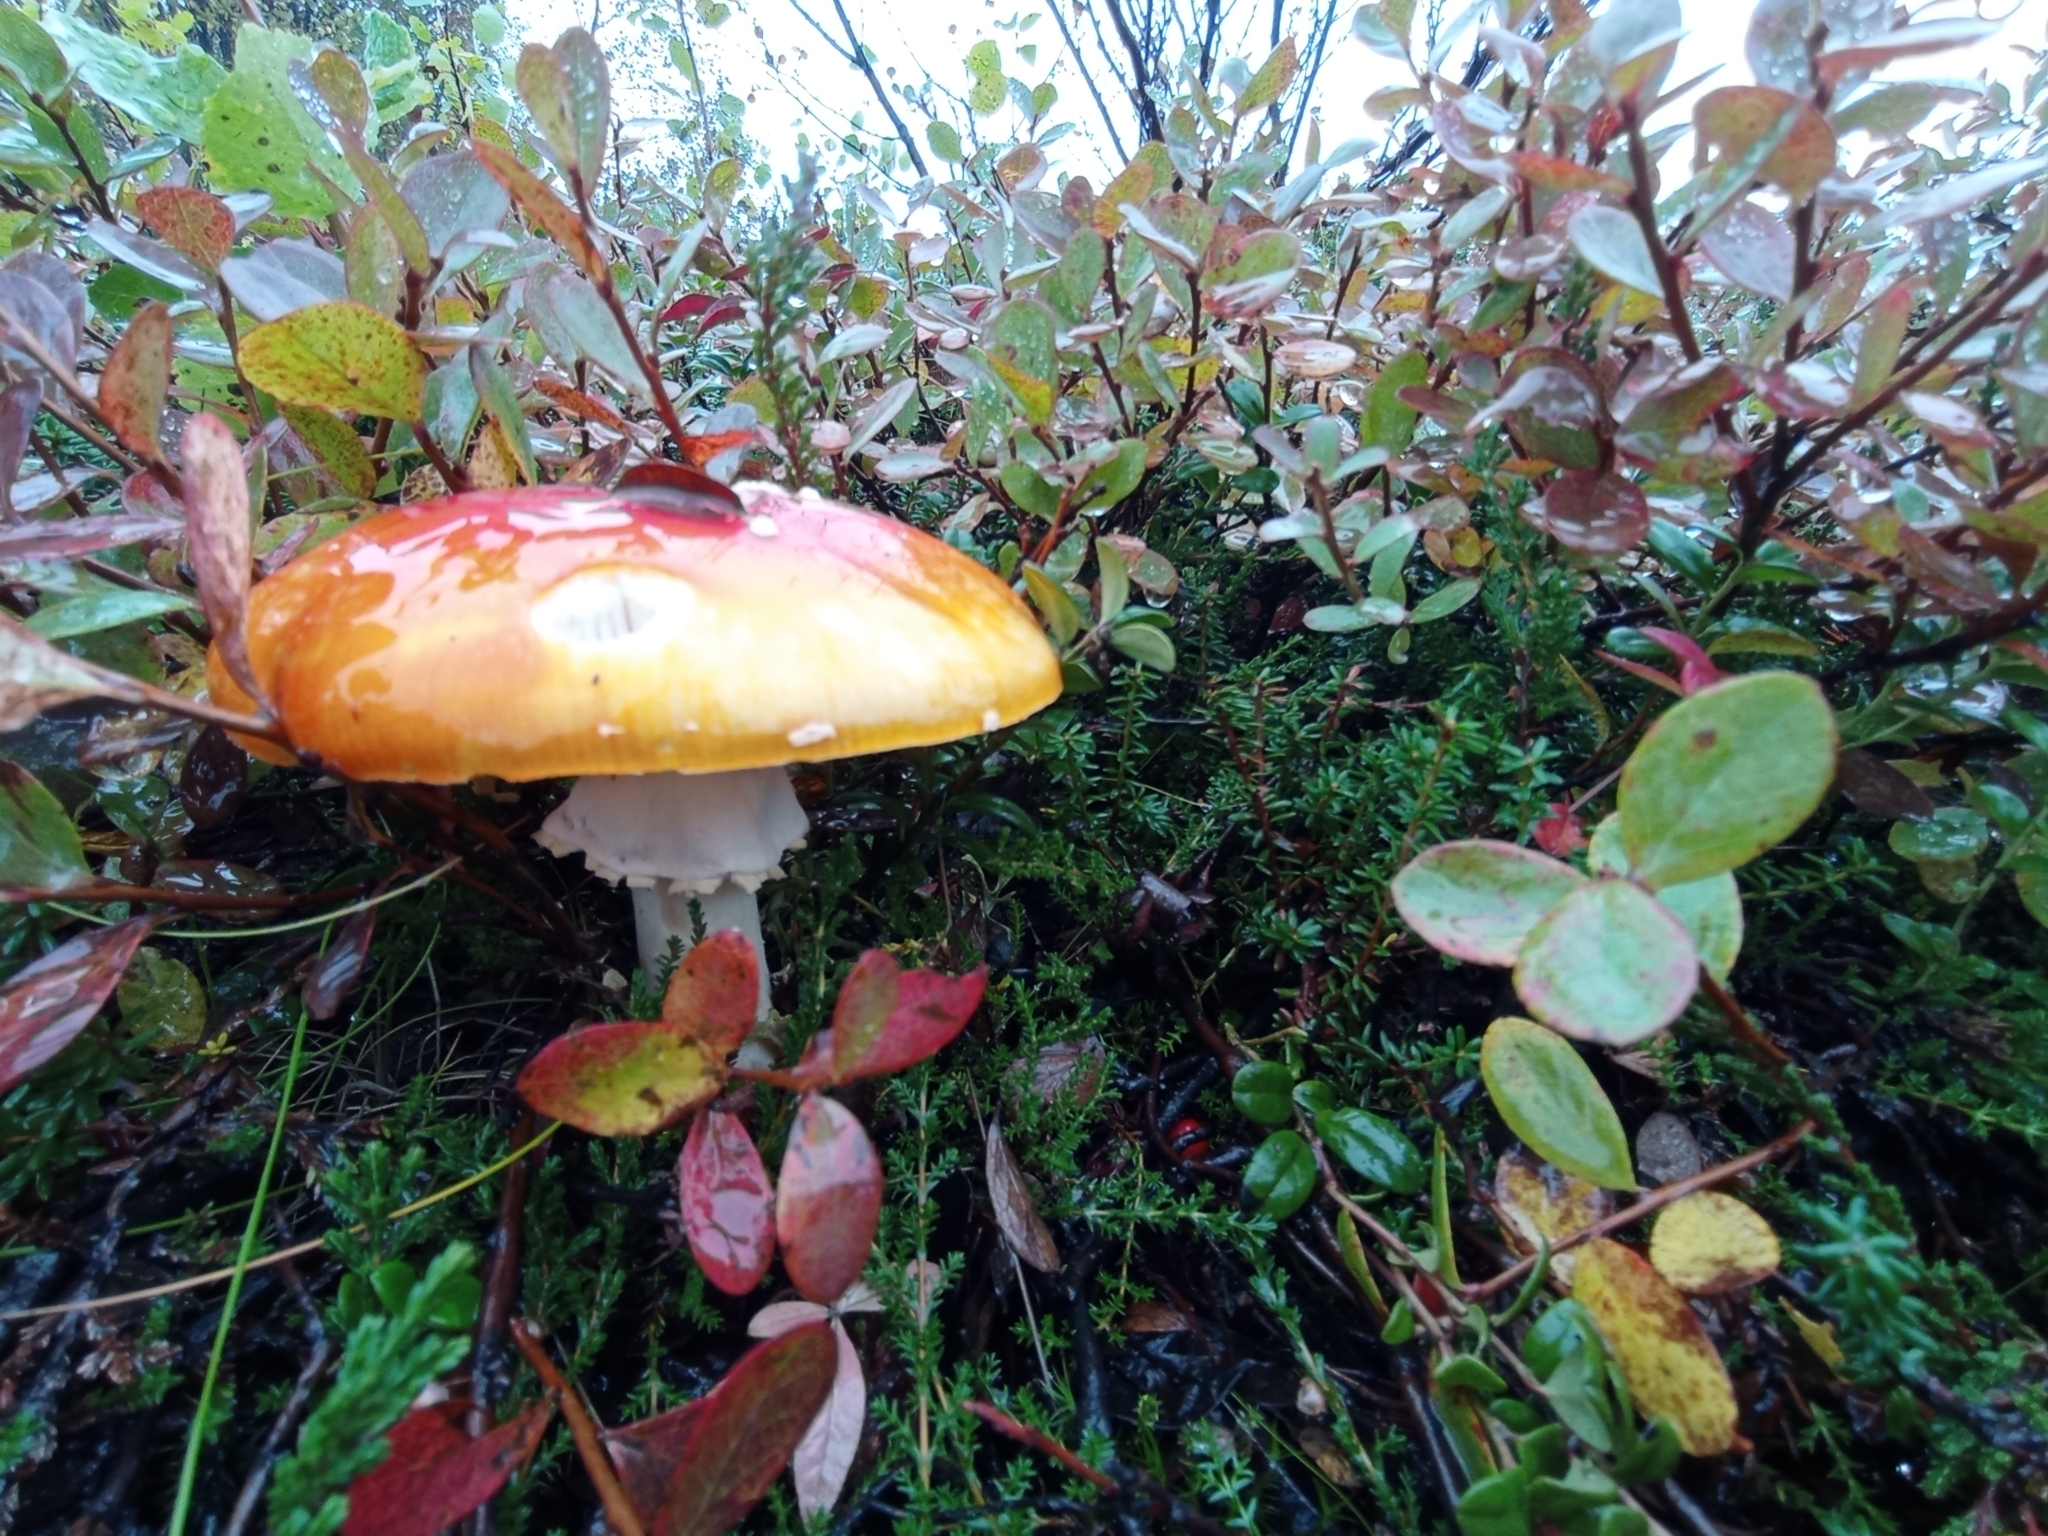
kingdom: Fungi
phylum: Basidiomycota
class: Agaricomycetes
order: Agaricales
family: Amanitaceae
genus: Amanita
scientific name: Amanita muscaria
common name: Fly agaric
